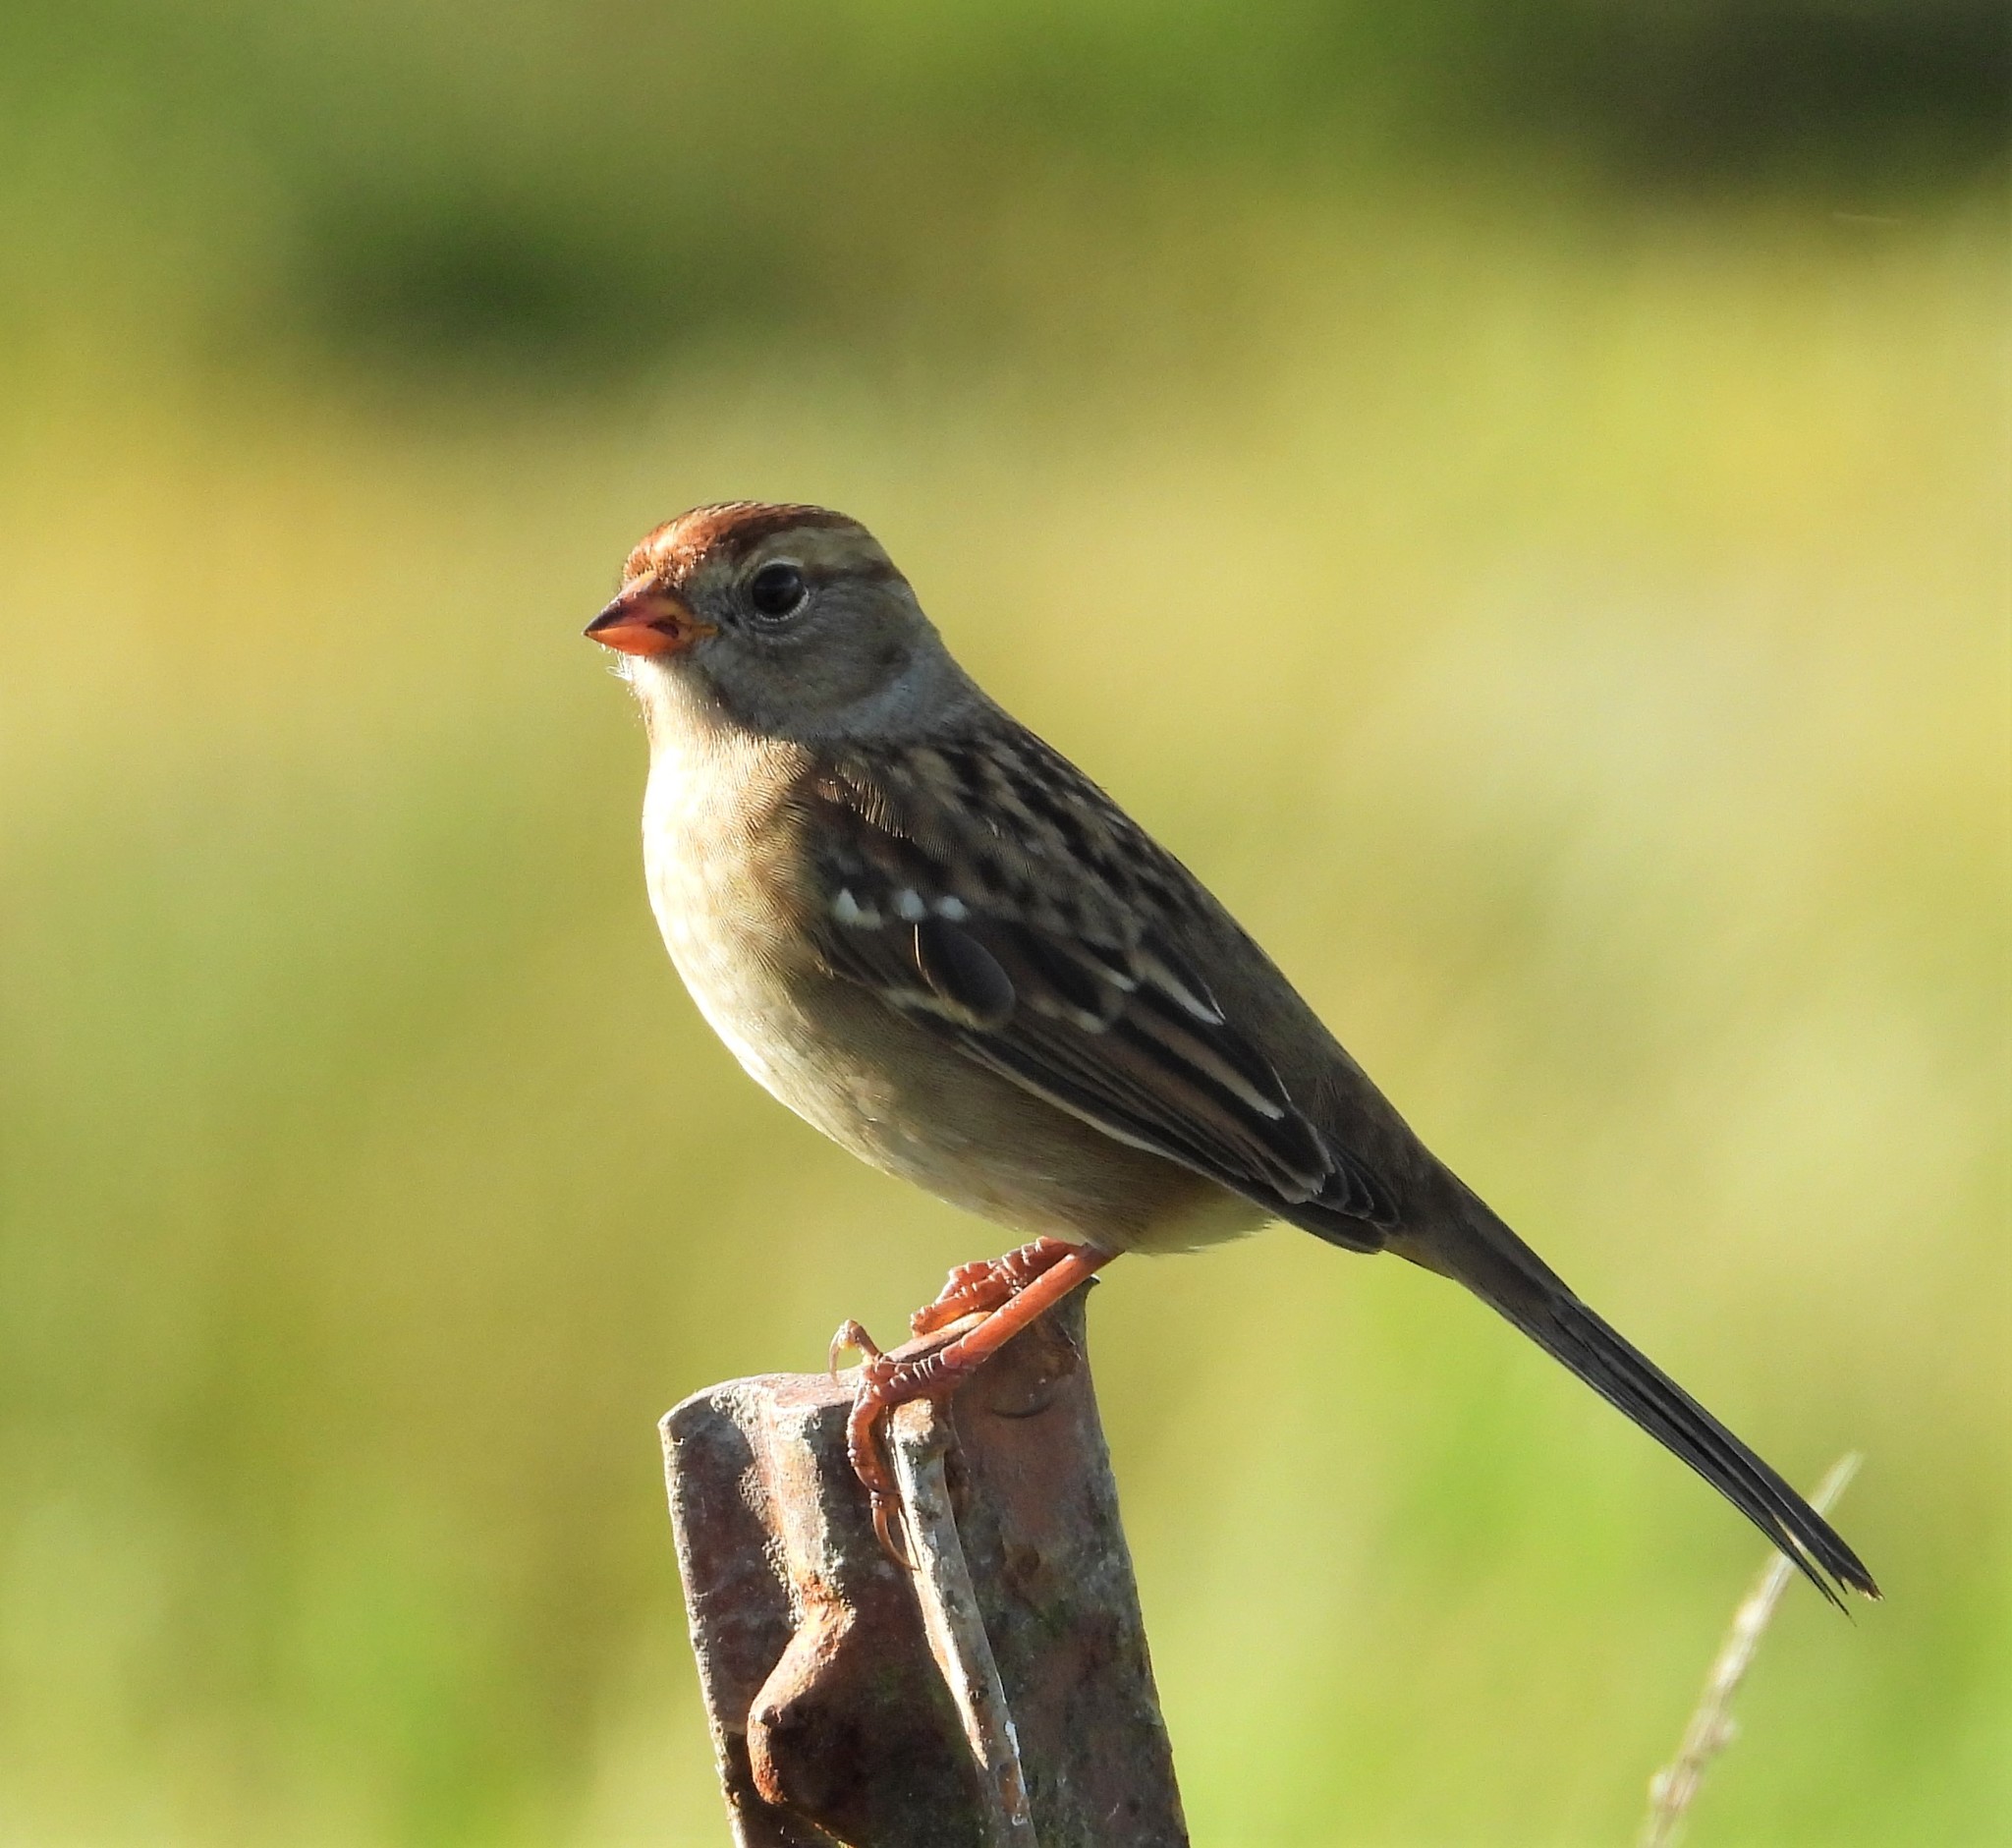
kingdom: Animalia
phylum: Chordata
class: Aves
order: Passeriformes
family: Passerellidae
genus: Zonotrichia
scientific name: Zonotrichia leucophrys
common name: White-crowned sparrow
